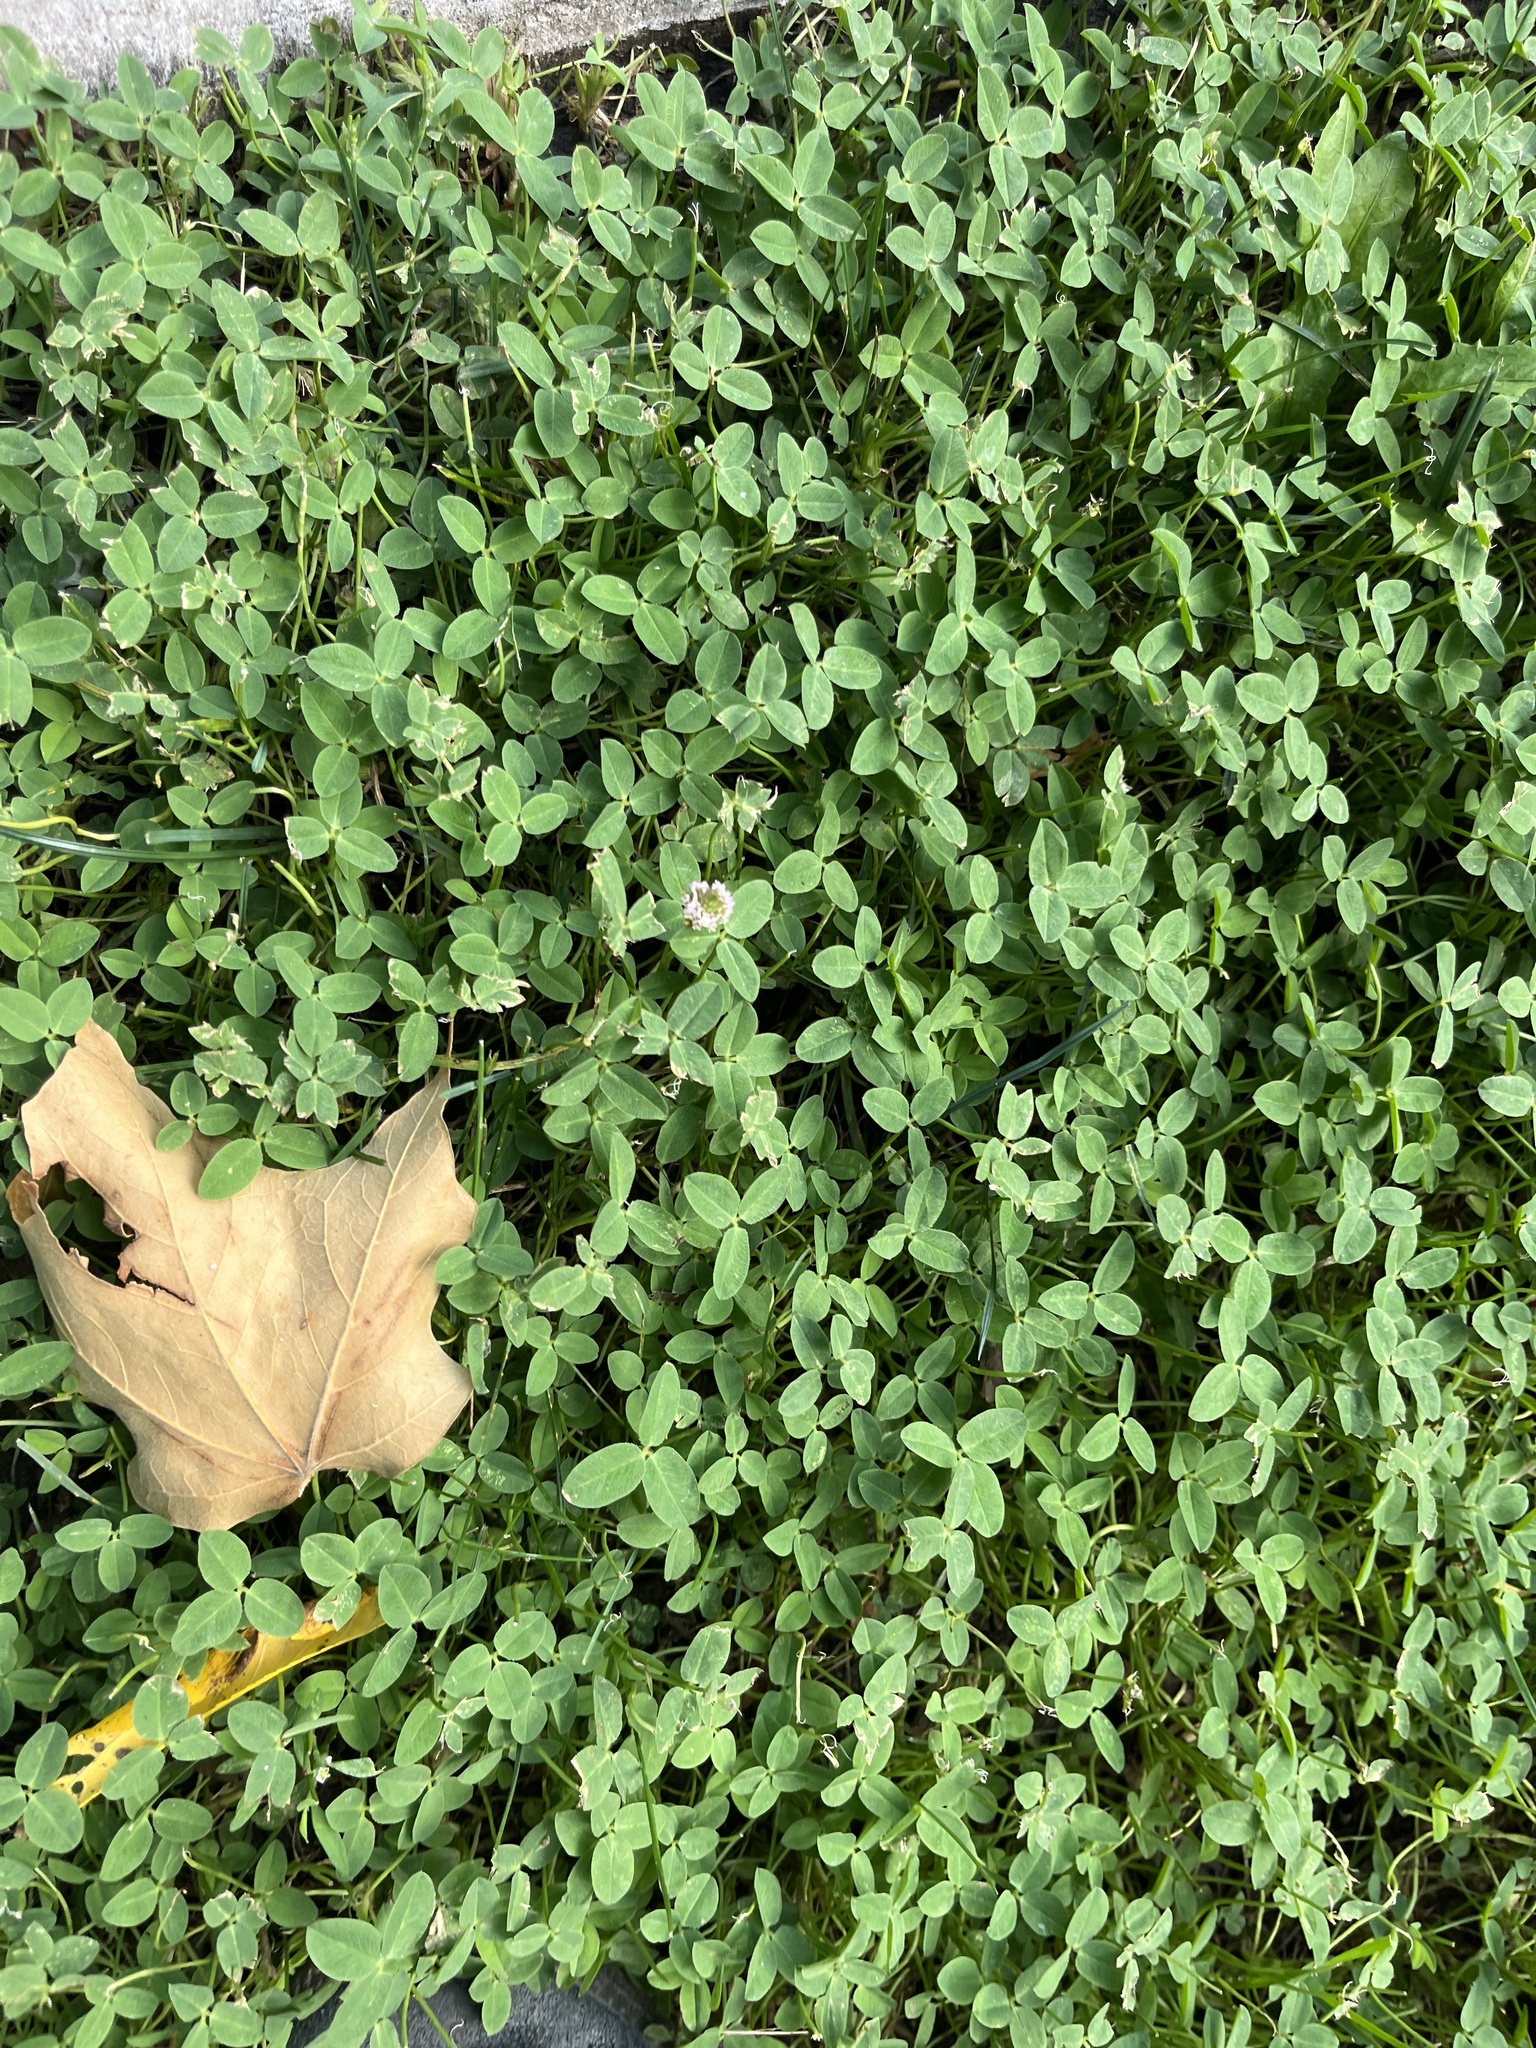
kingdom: Plantae
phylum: Tracheophyta
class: Magnoliopsida
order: Fabales
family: Fabaceae
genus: Trifolium
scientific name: Trifolium fragiferum
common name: Strawberry clover
